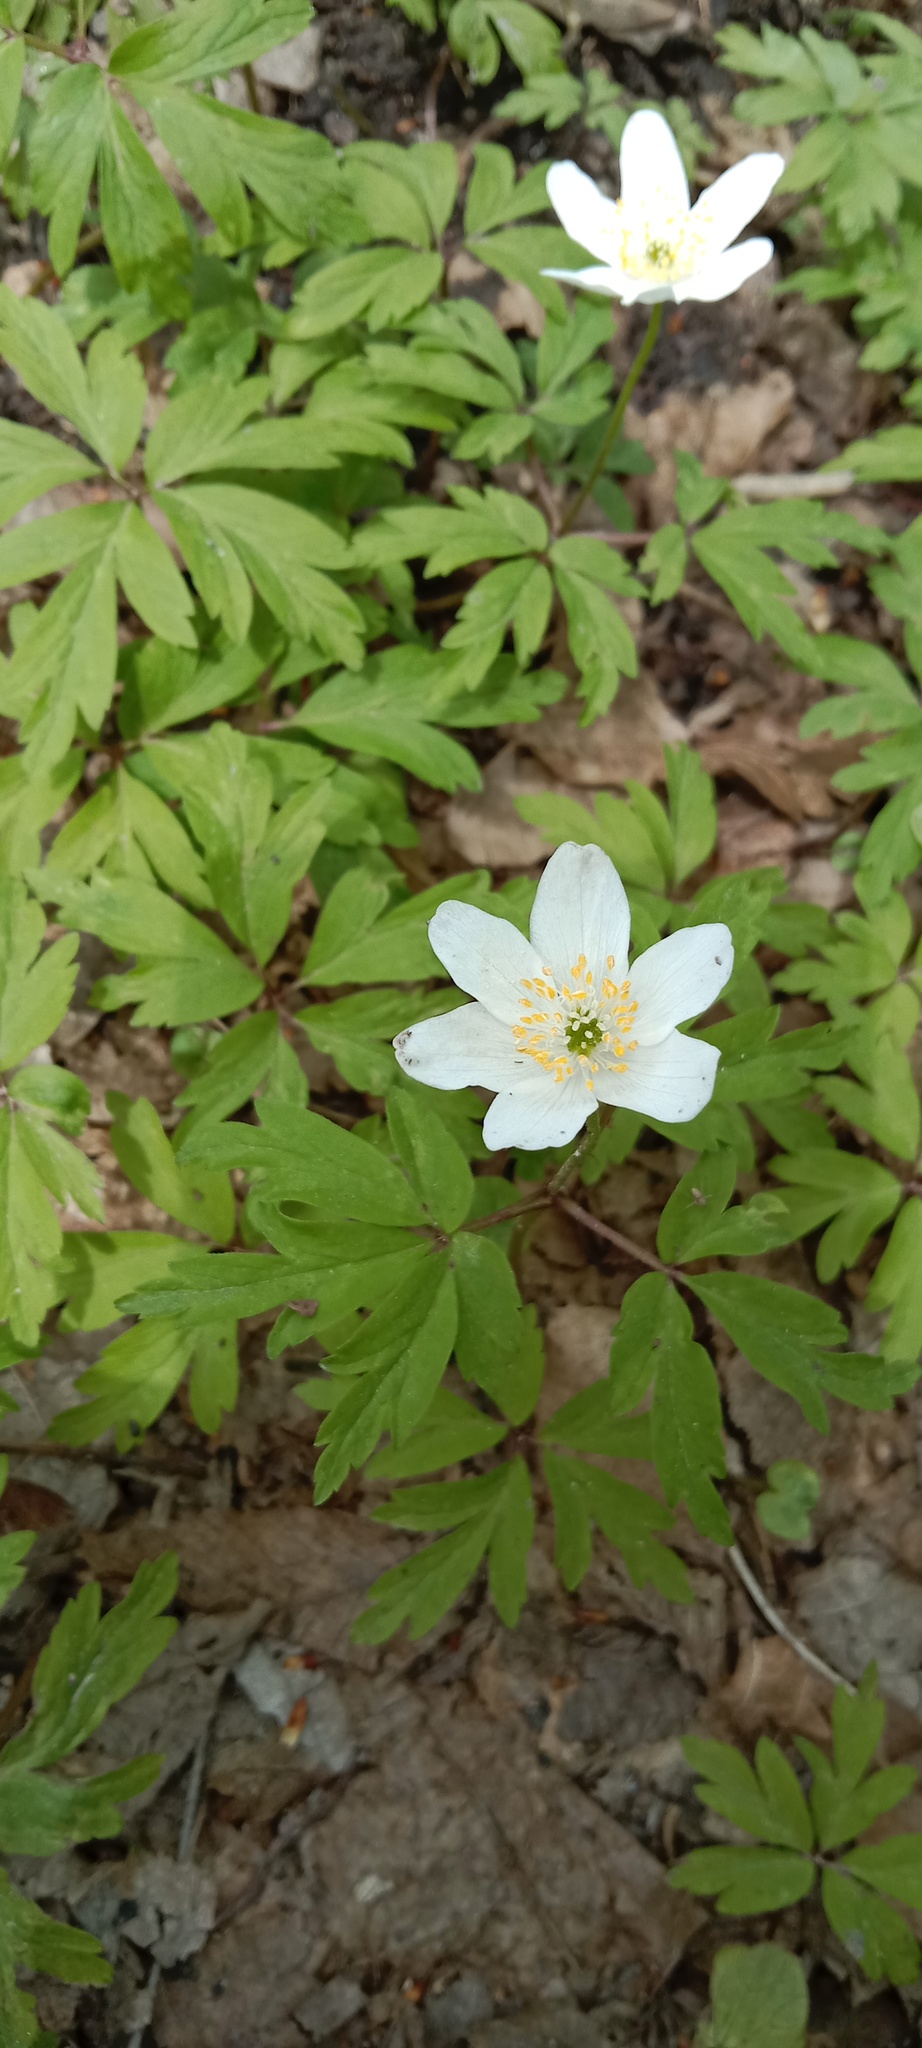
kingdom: Plantae
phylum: Tracheophyta
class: Magnoliopsida
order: Ranunculales
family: Ranunculaceae
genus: Anemone
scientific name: Anemone nemorosa
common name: Wood anemone
